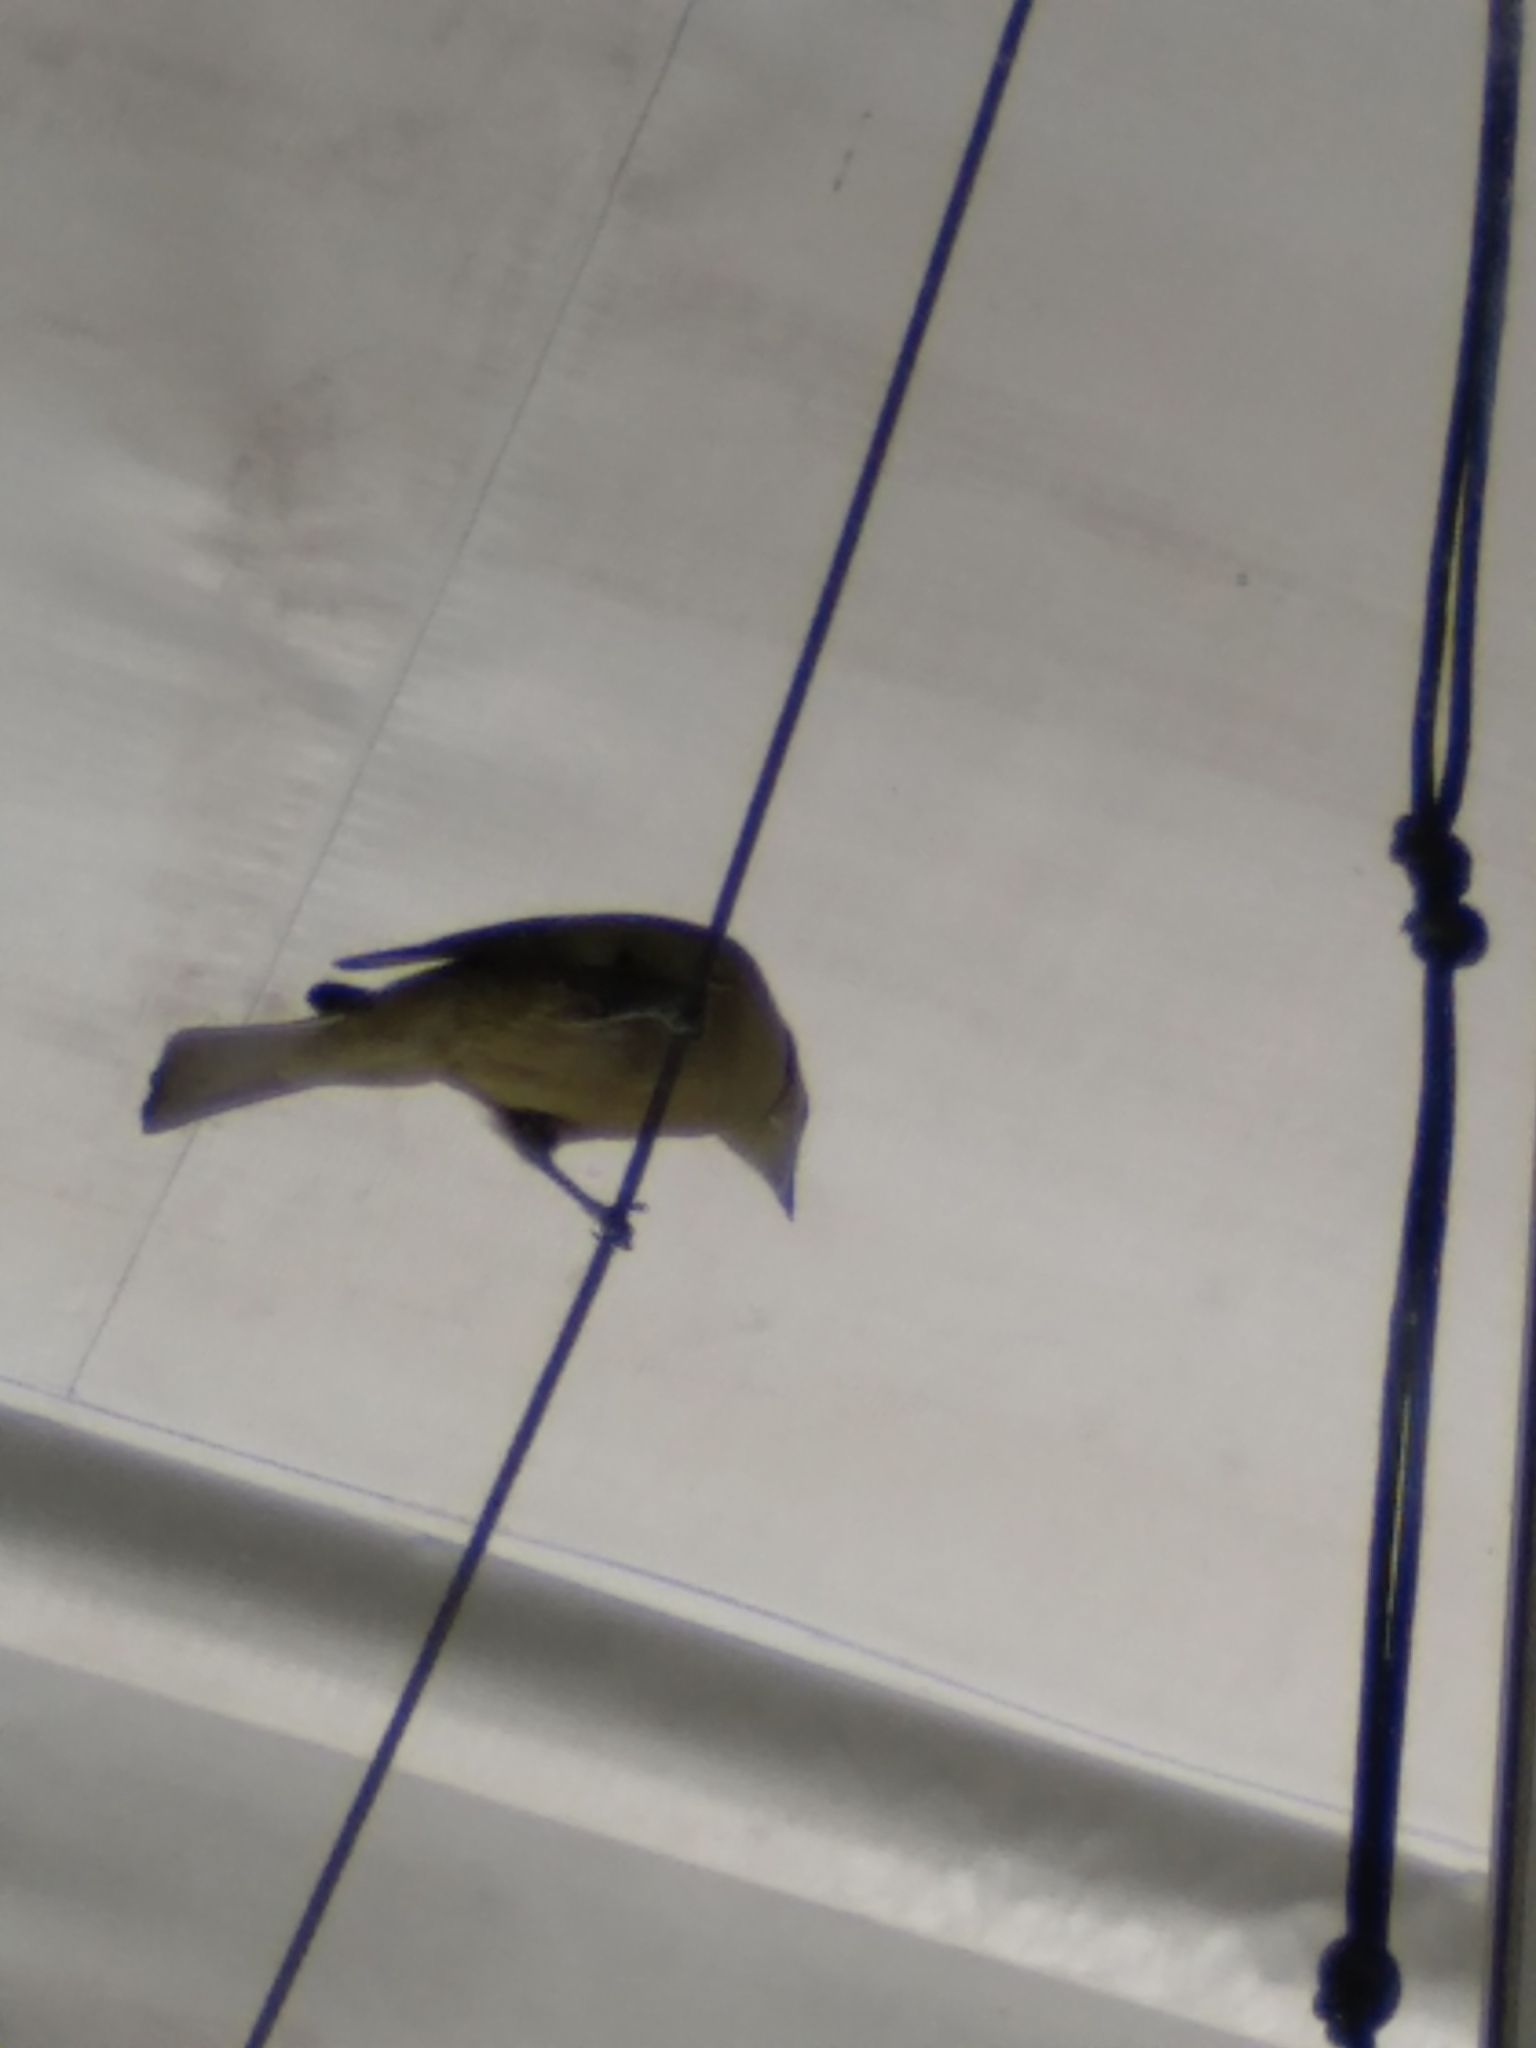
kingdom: Animalia
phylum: Chordata
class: Aves
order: Passeriformes
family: Thraupidae
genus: Thraupis
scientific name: Thraupis palmarum
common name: Palm tanager
